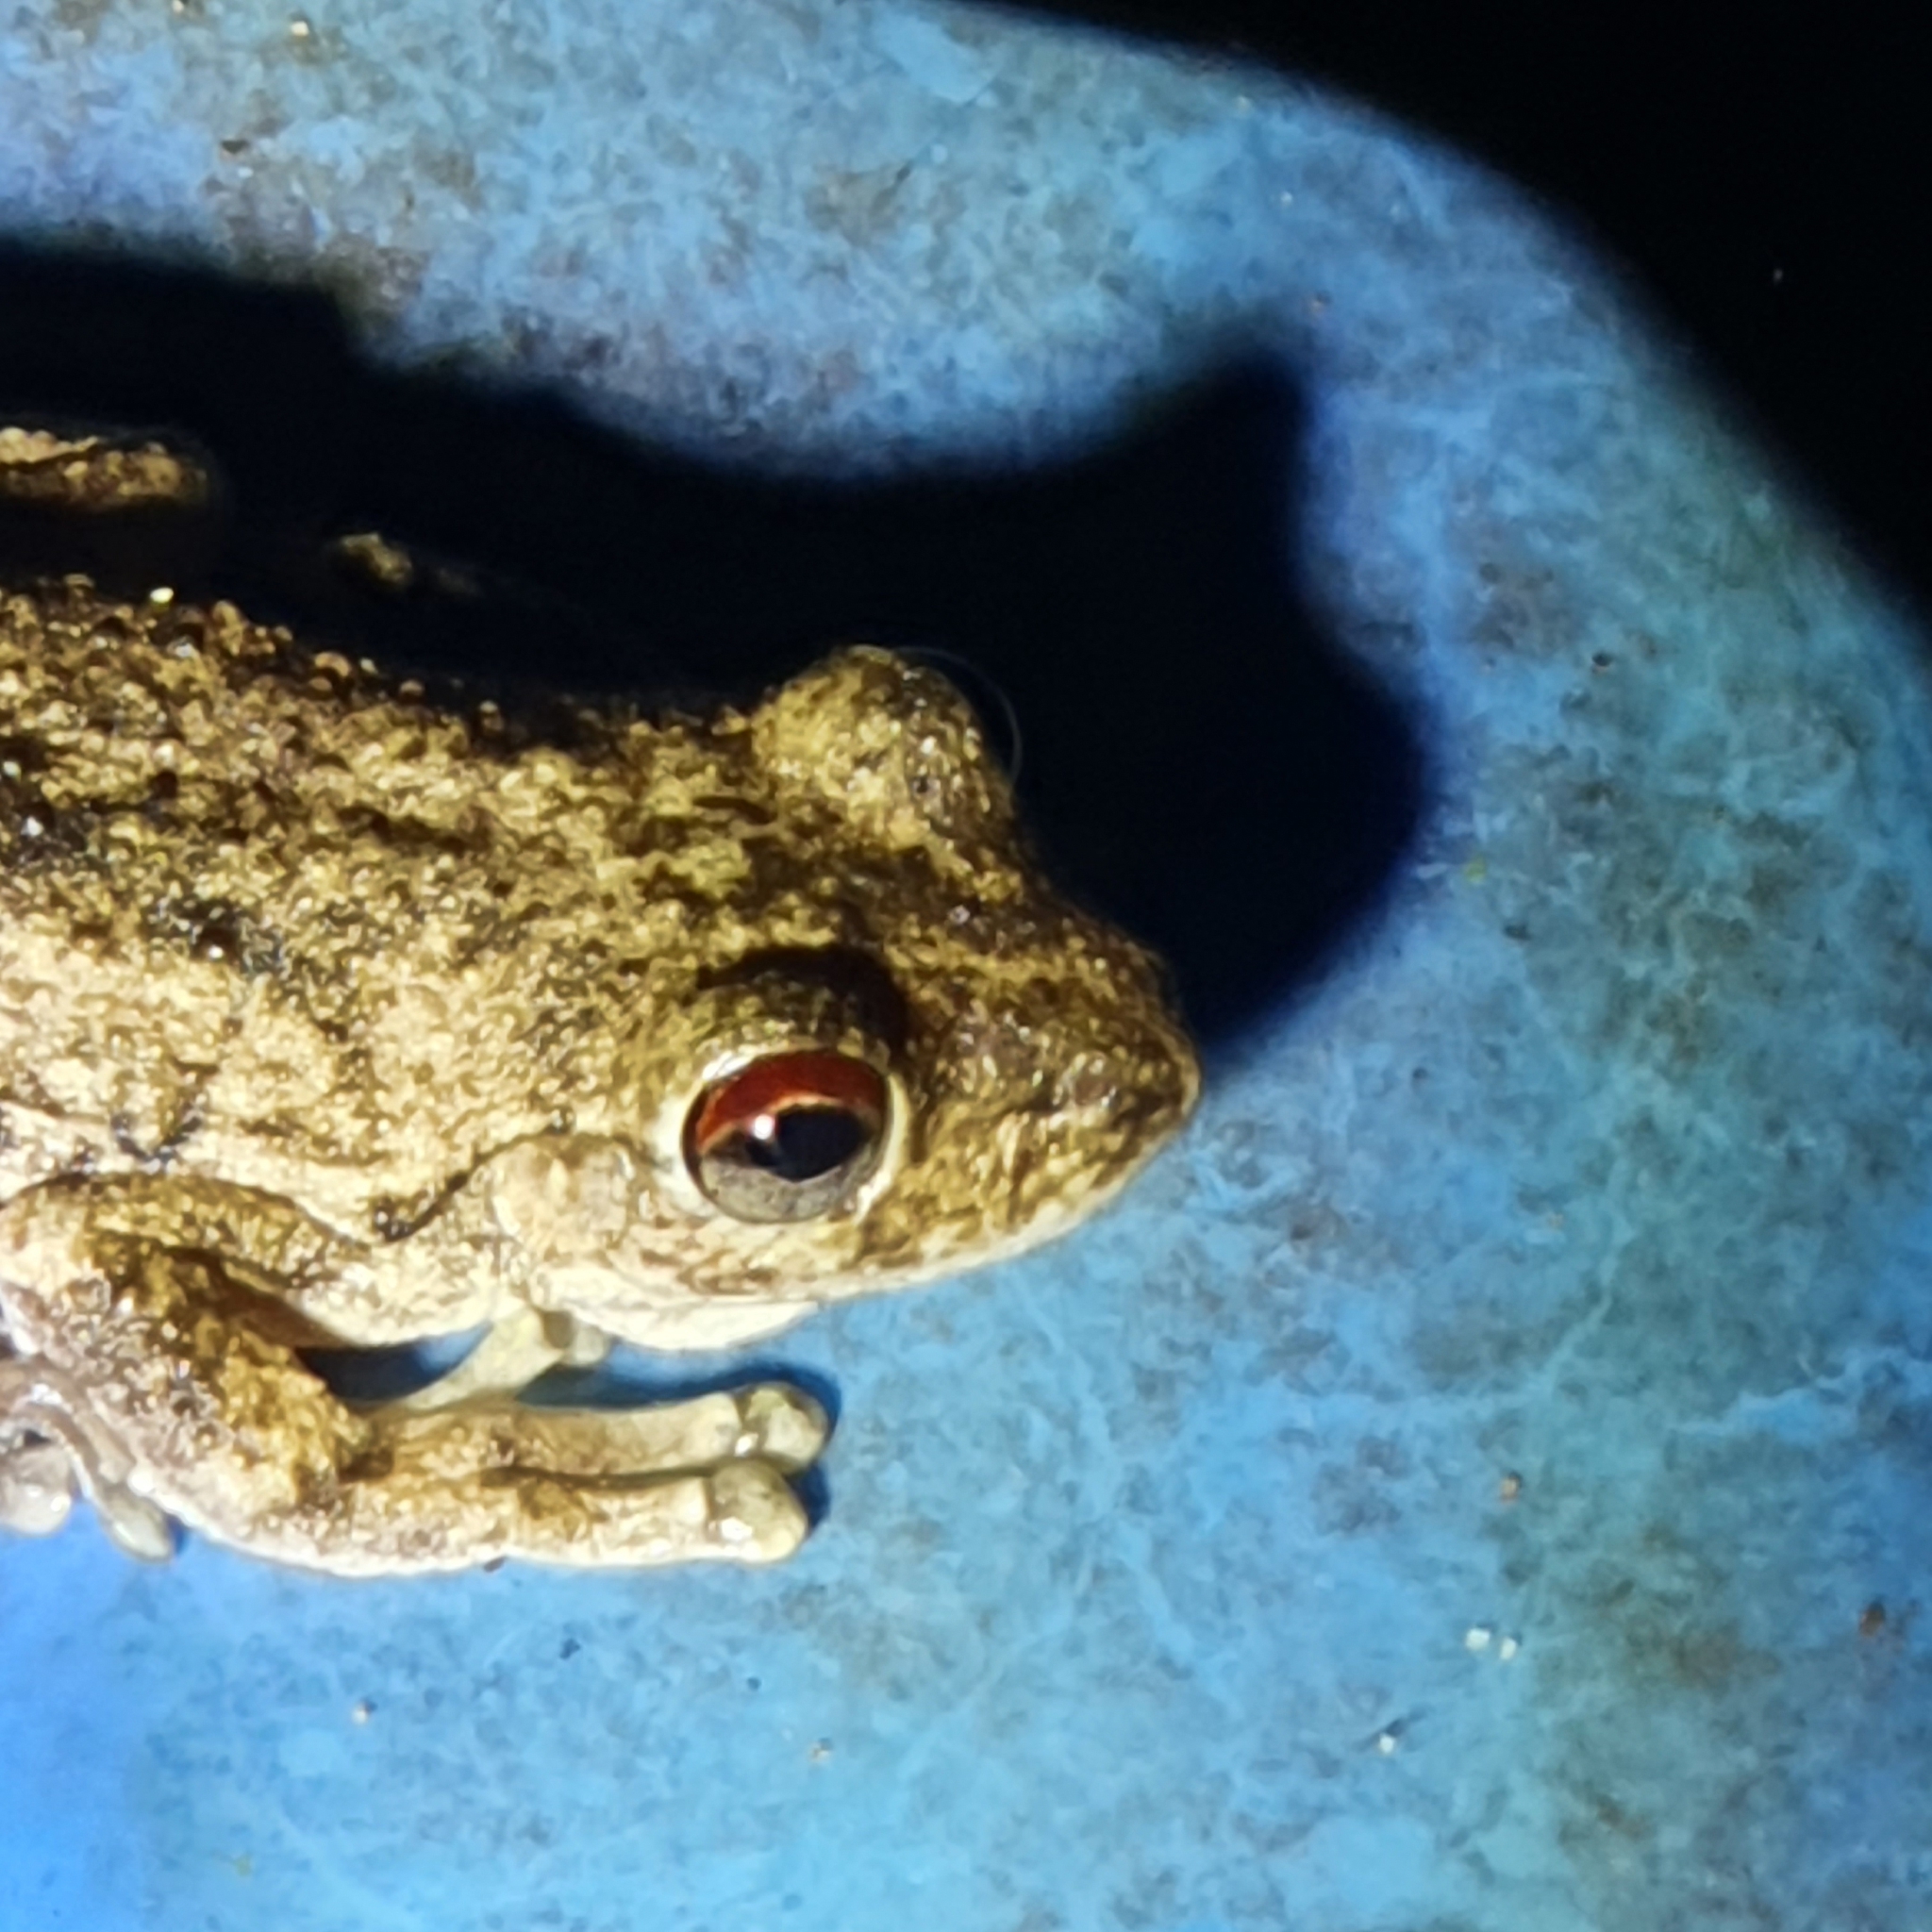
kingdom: Animalia
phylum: Chordata
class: Amphibia
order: Anura
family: Pelodryadidae
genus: Litoria
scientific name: Litoria rothii
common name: Roth’s tree frog
